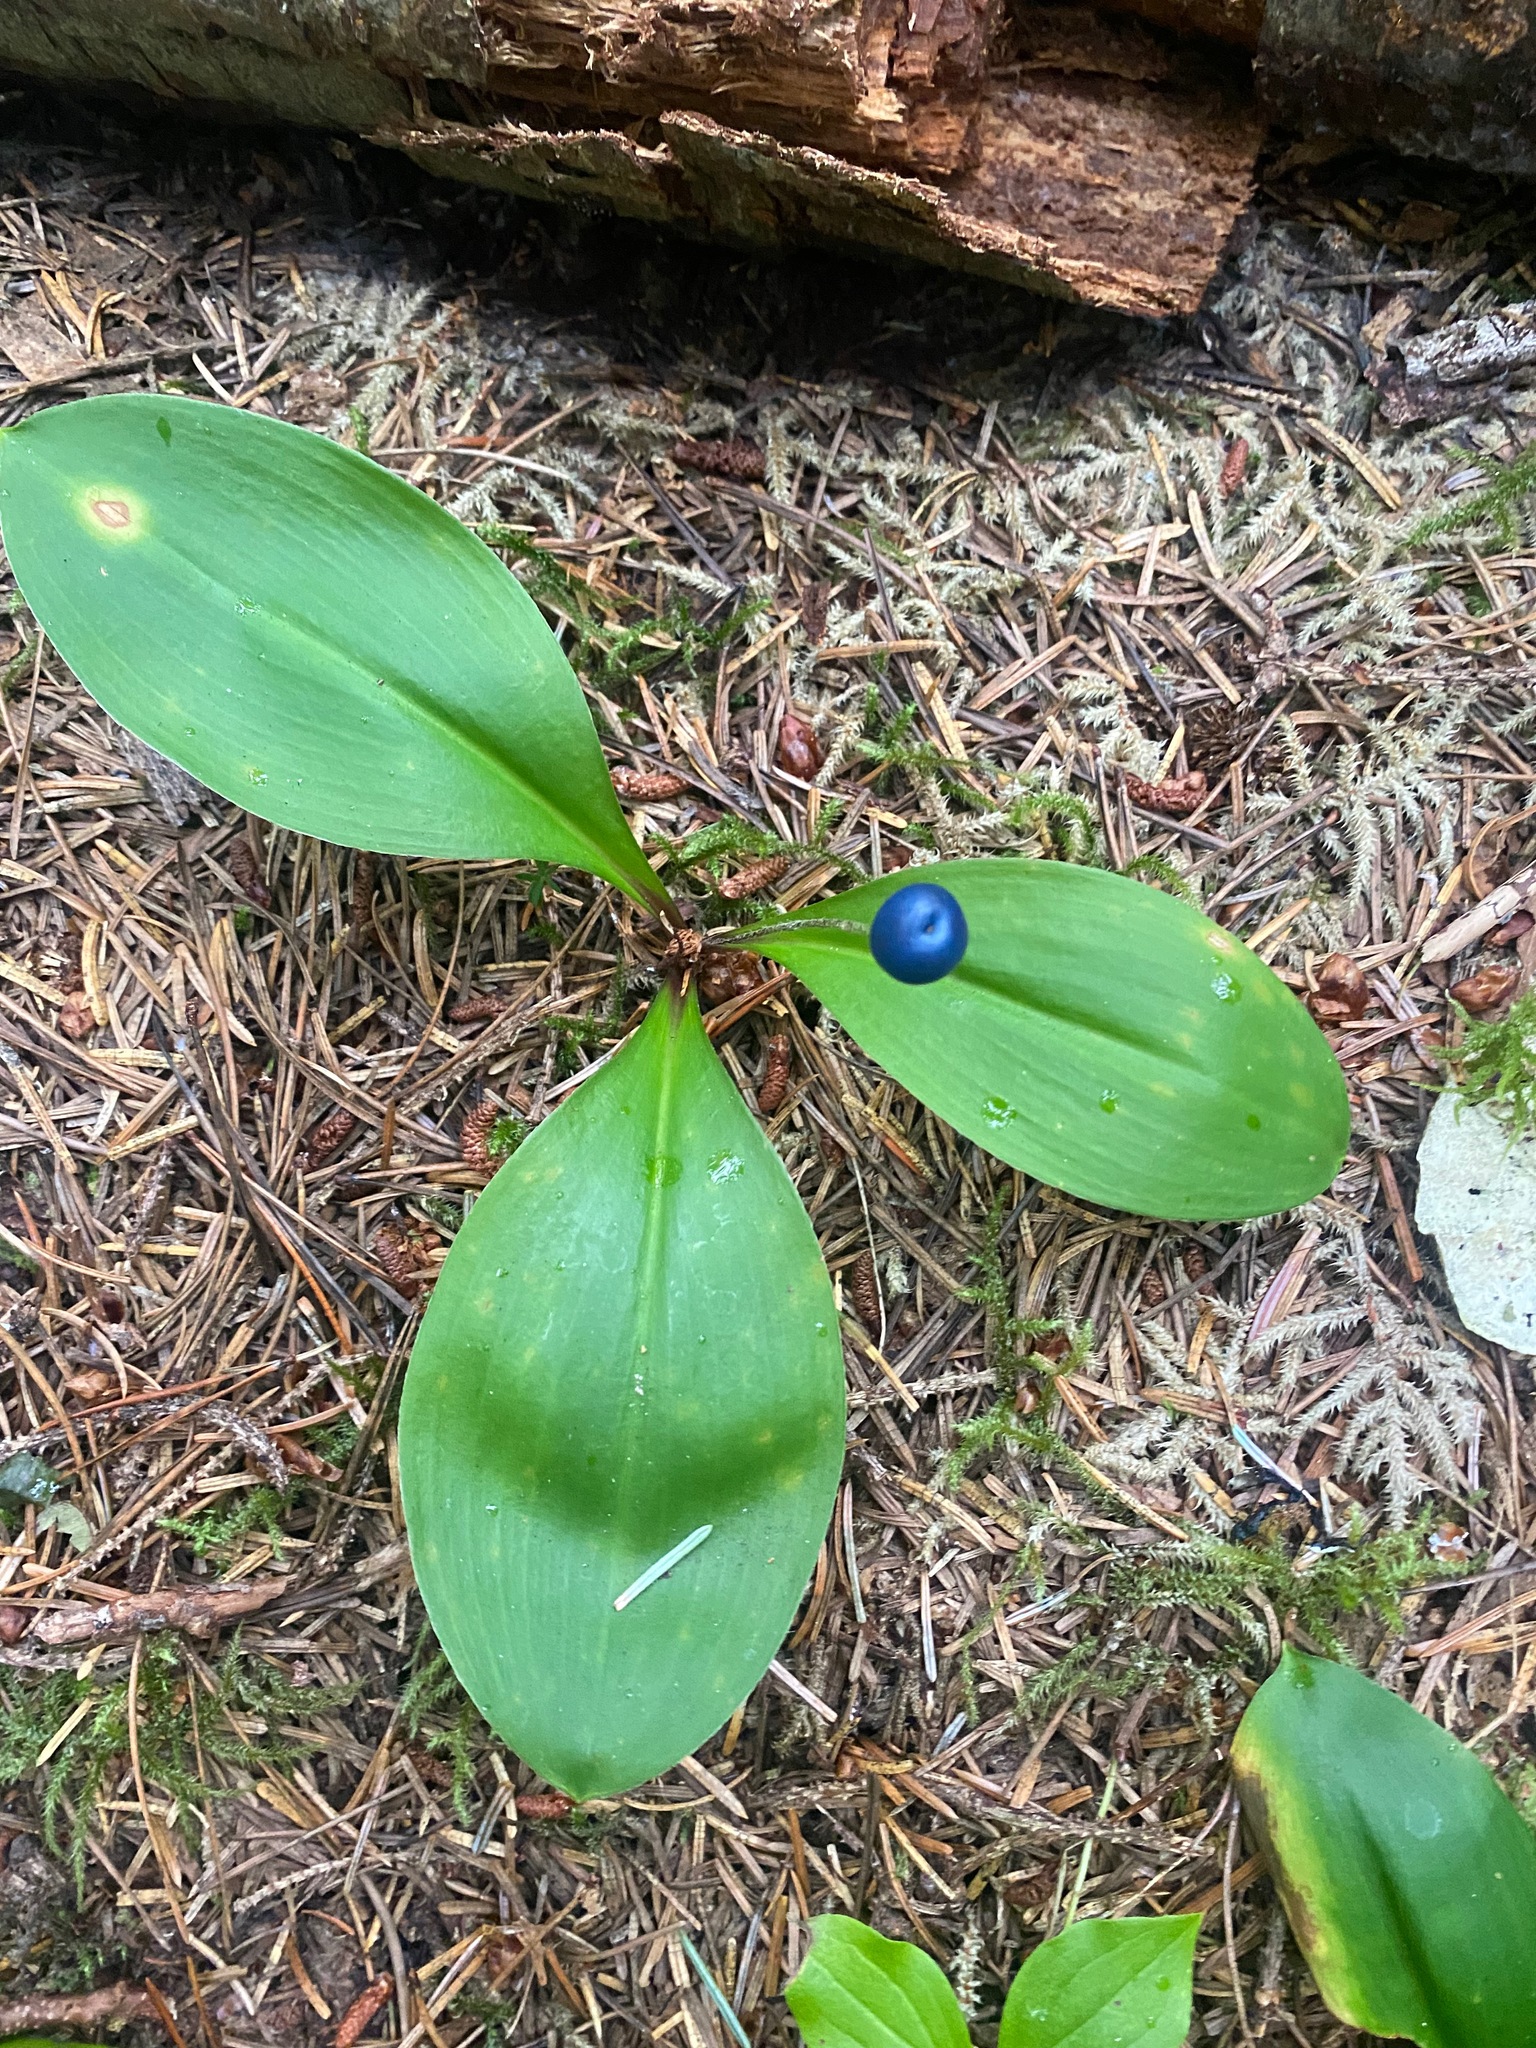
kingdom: Plantae
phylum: Tracheophyta
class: Liliopsida
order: Liliales
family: Liliaceae
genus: Clintonia
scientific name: Clintonia uniflora
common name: Queen's cup
